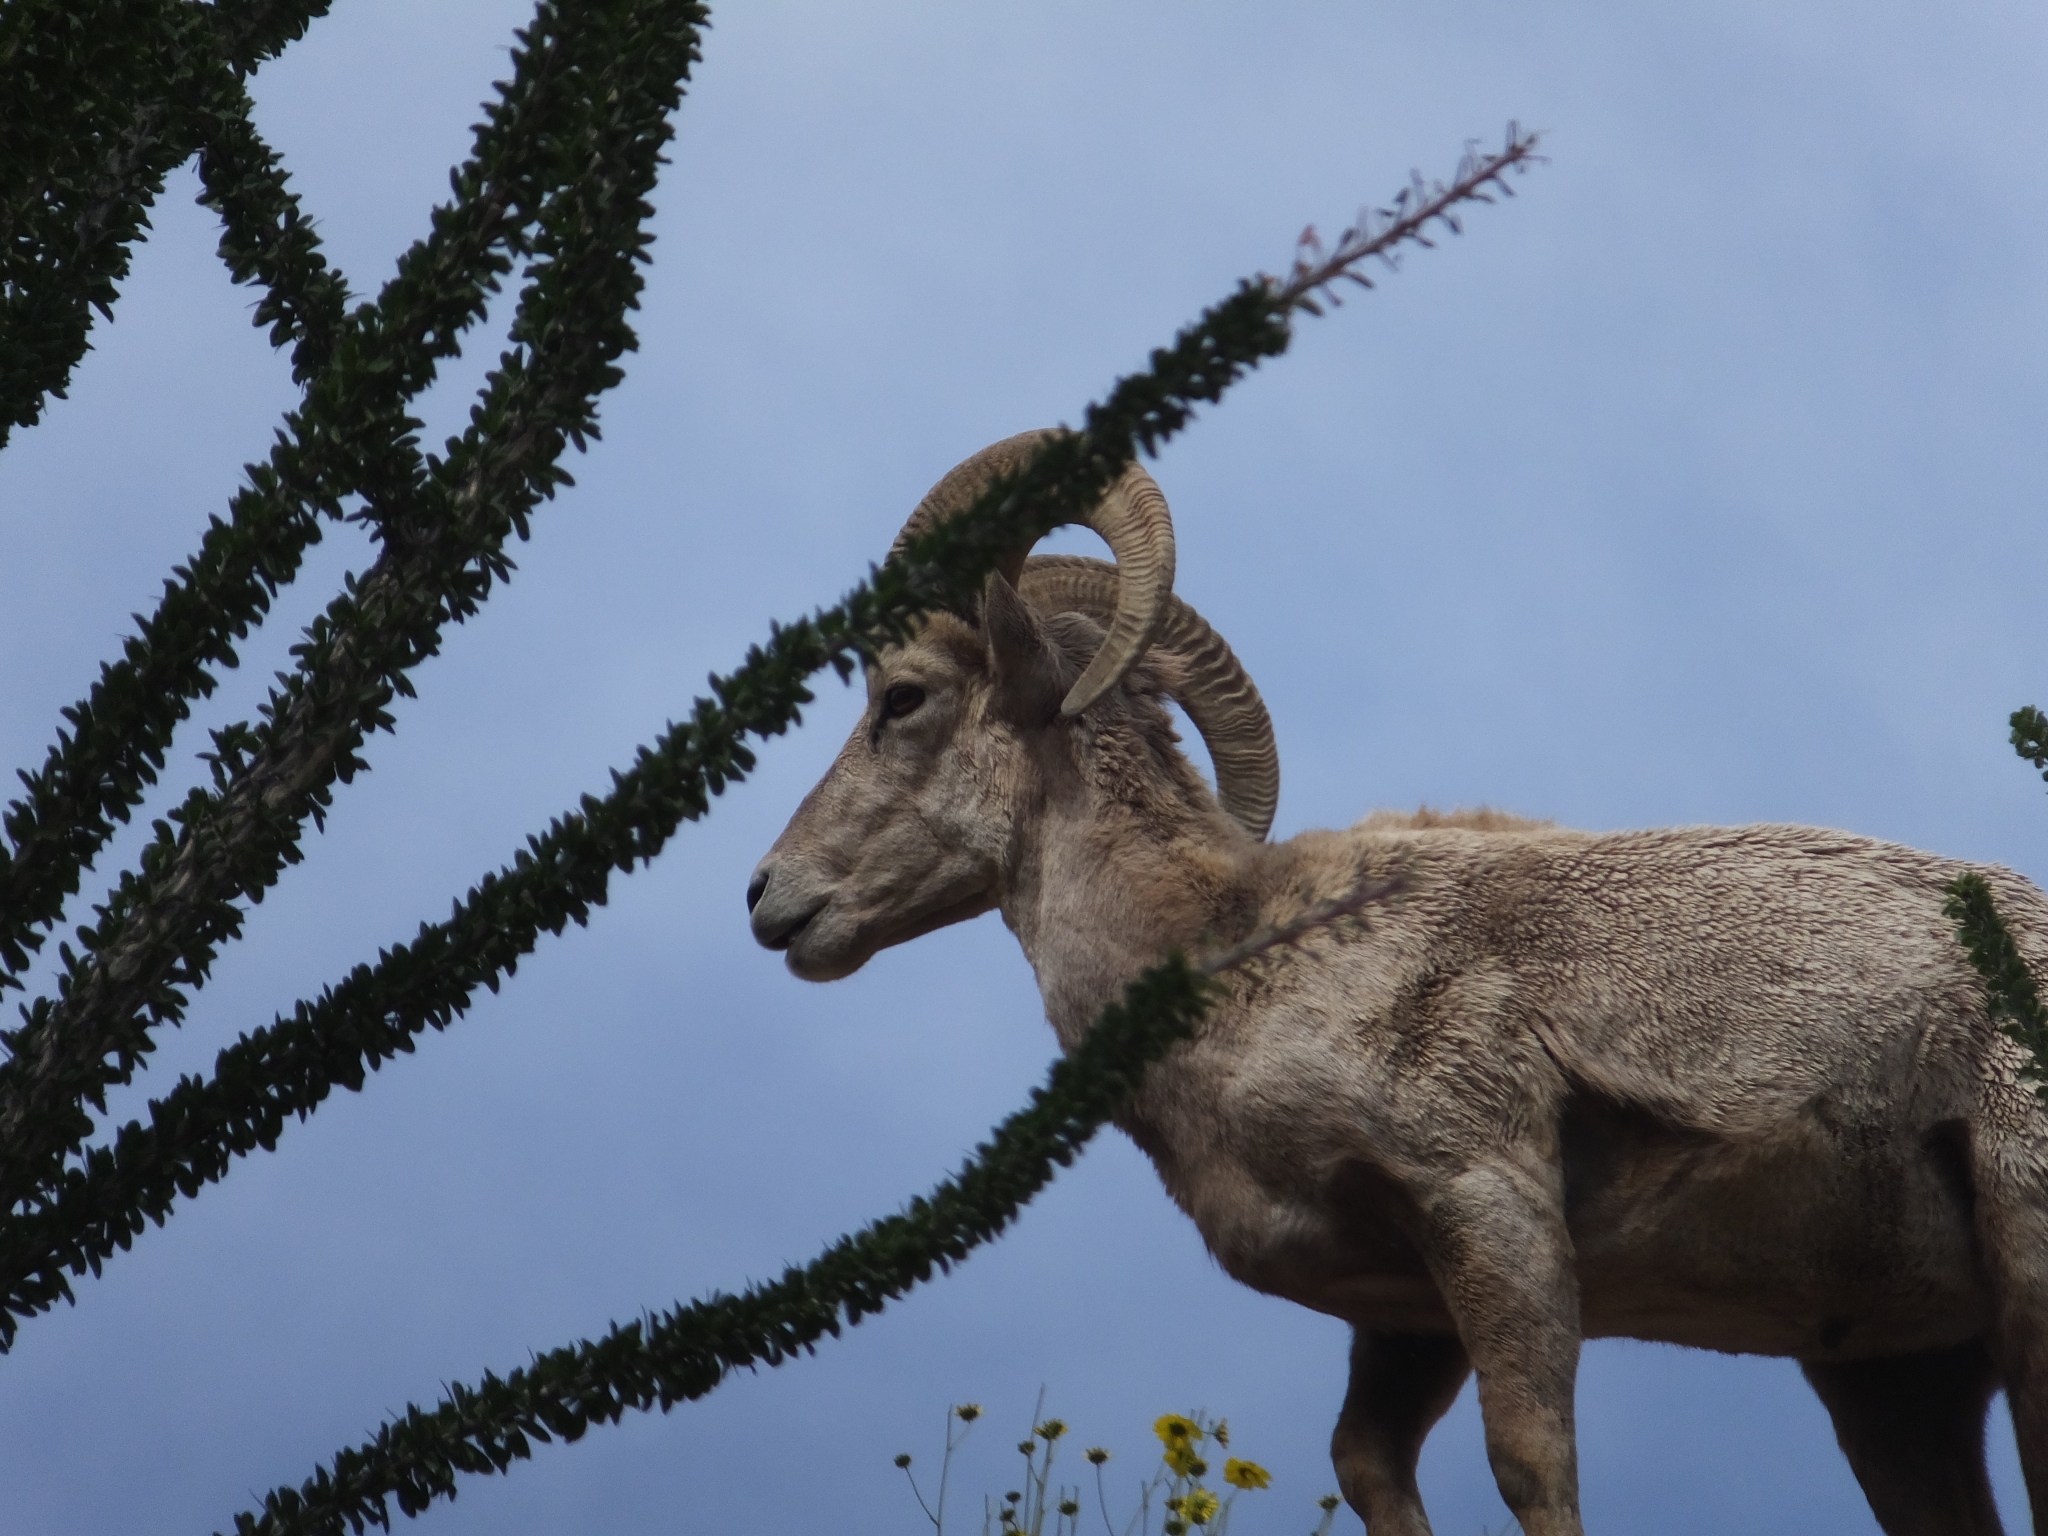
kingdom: Animalia
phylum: Chordata
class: Mammalia
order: Artiodactyla
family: Bovidae
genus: Ovis
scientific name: Ovis canadensis
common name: Bighorn sheep
